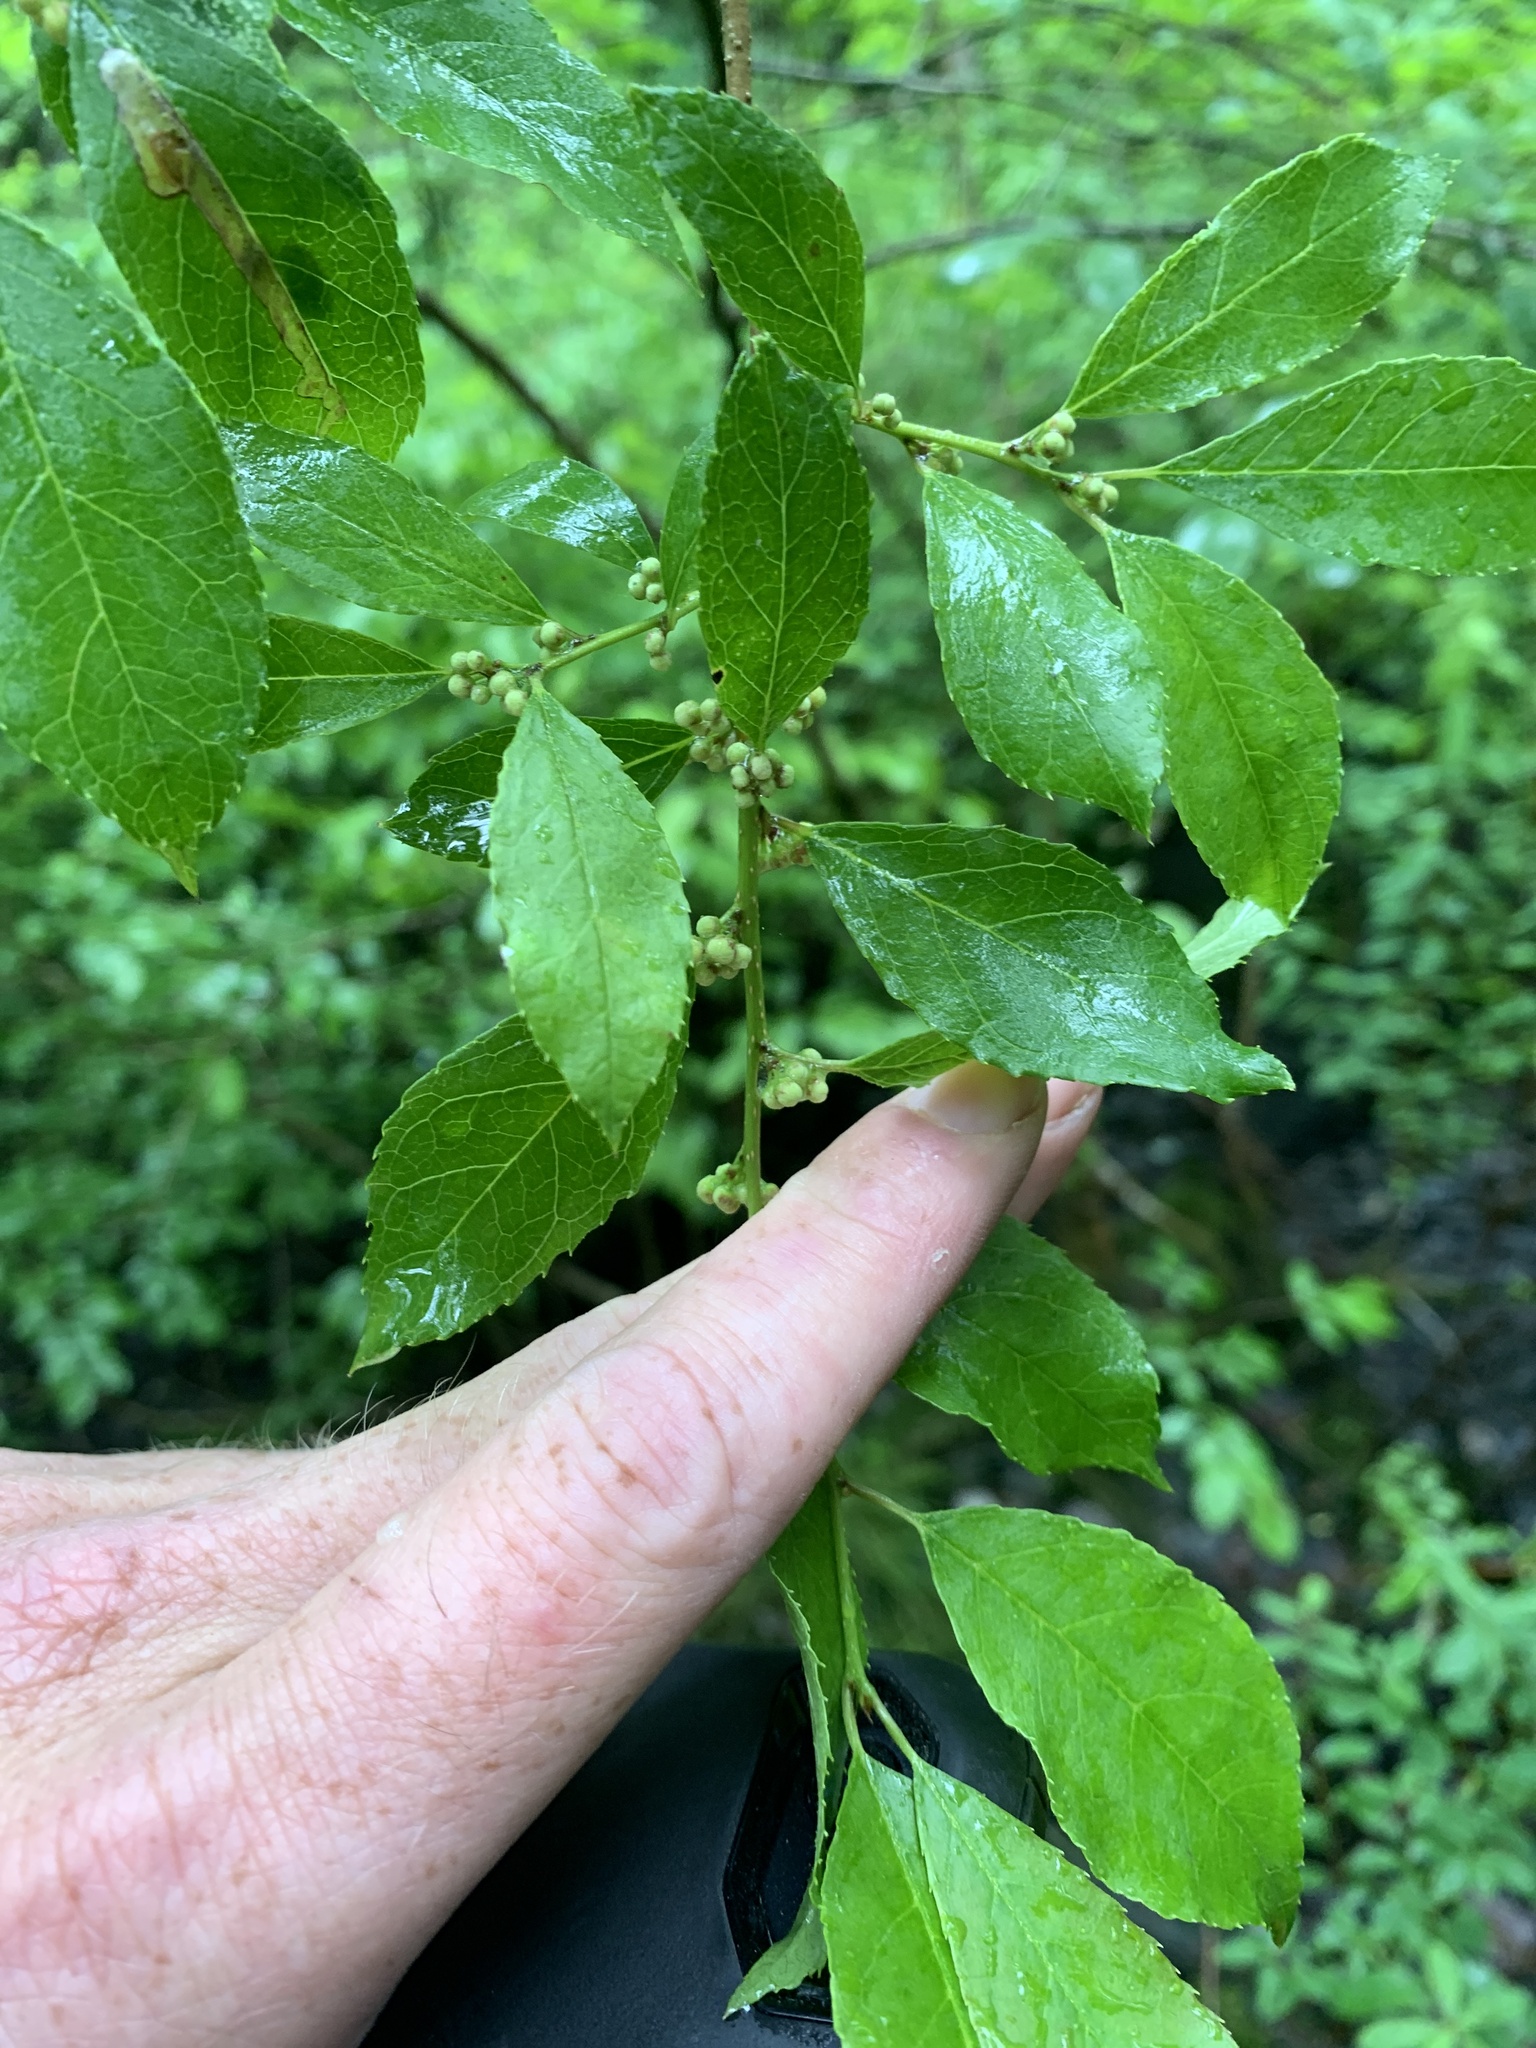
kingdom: Plantae
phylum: Tracheophyta
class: Magnoliopsida
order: Aquifoliales
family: Aquifoliaceae
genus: Ilex
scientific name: Ilex verticillata
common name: Virginia winterberry
